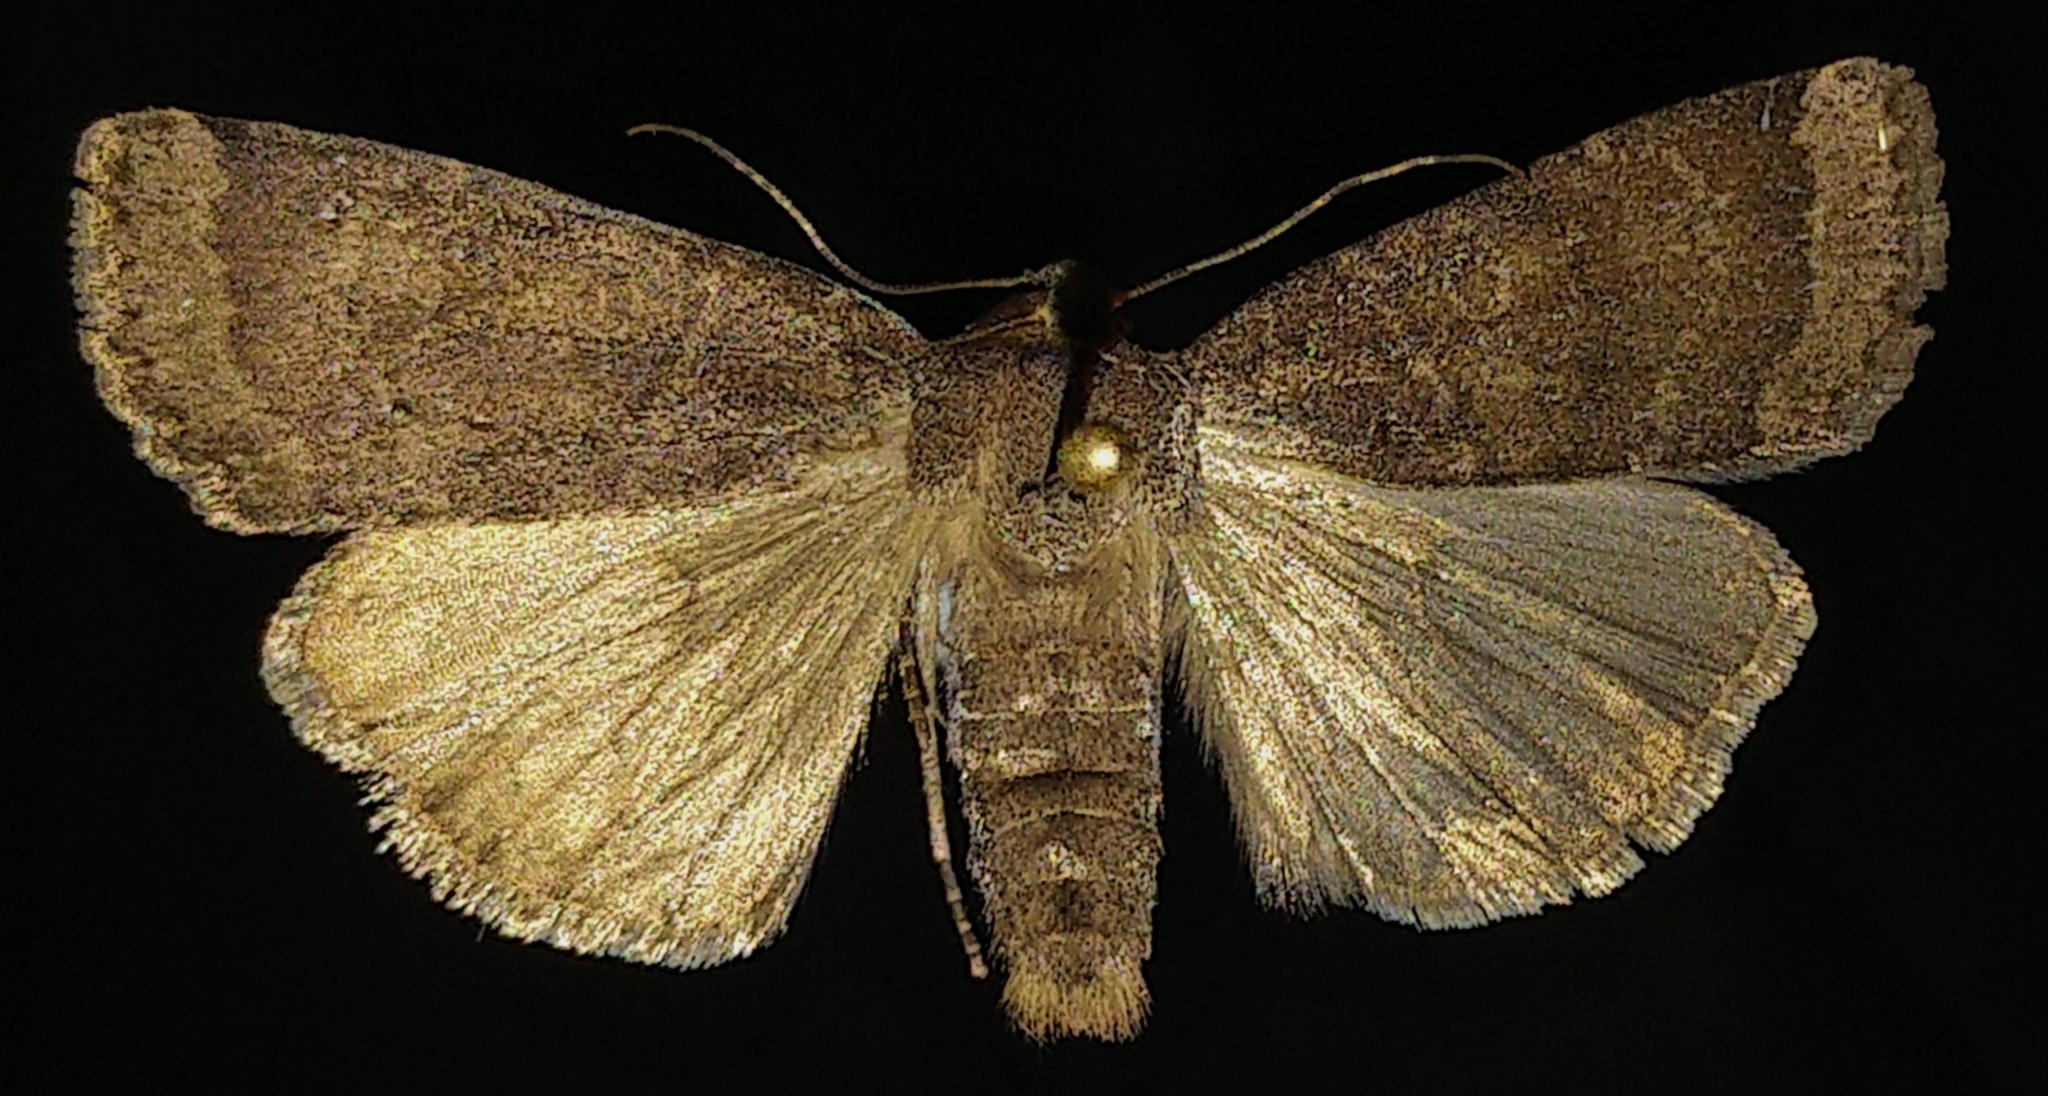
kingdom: Animalia
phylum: Arthropoda
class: Insecta
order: Lepidoptera
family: Noctuidae
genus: Abagrotis
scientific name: Abagrotis variata
